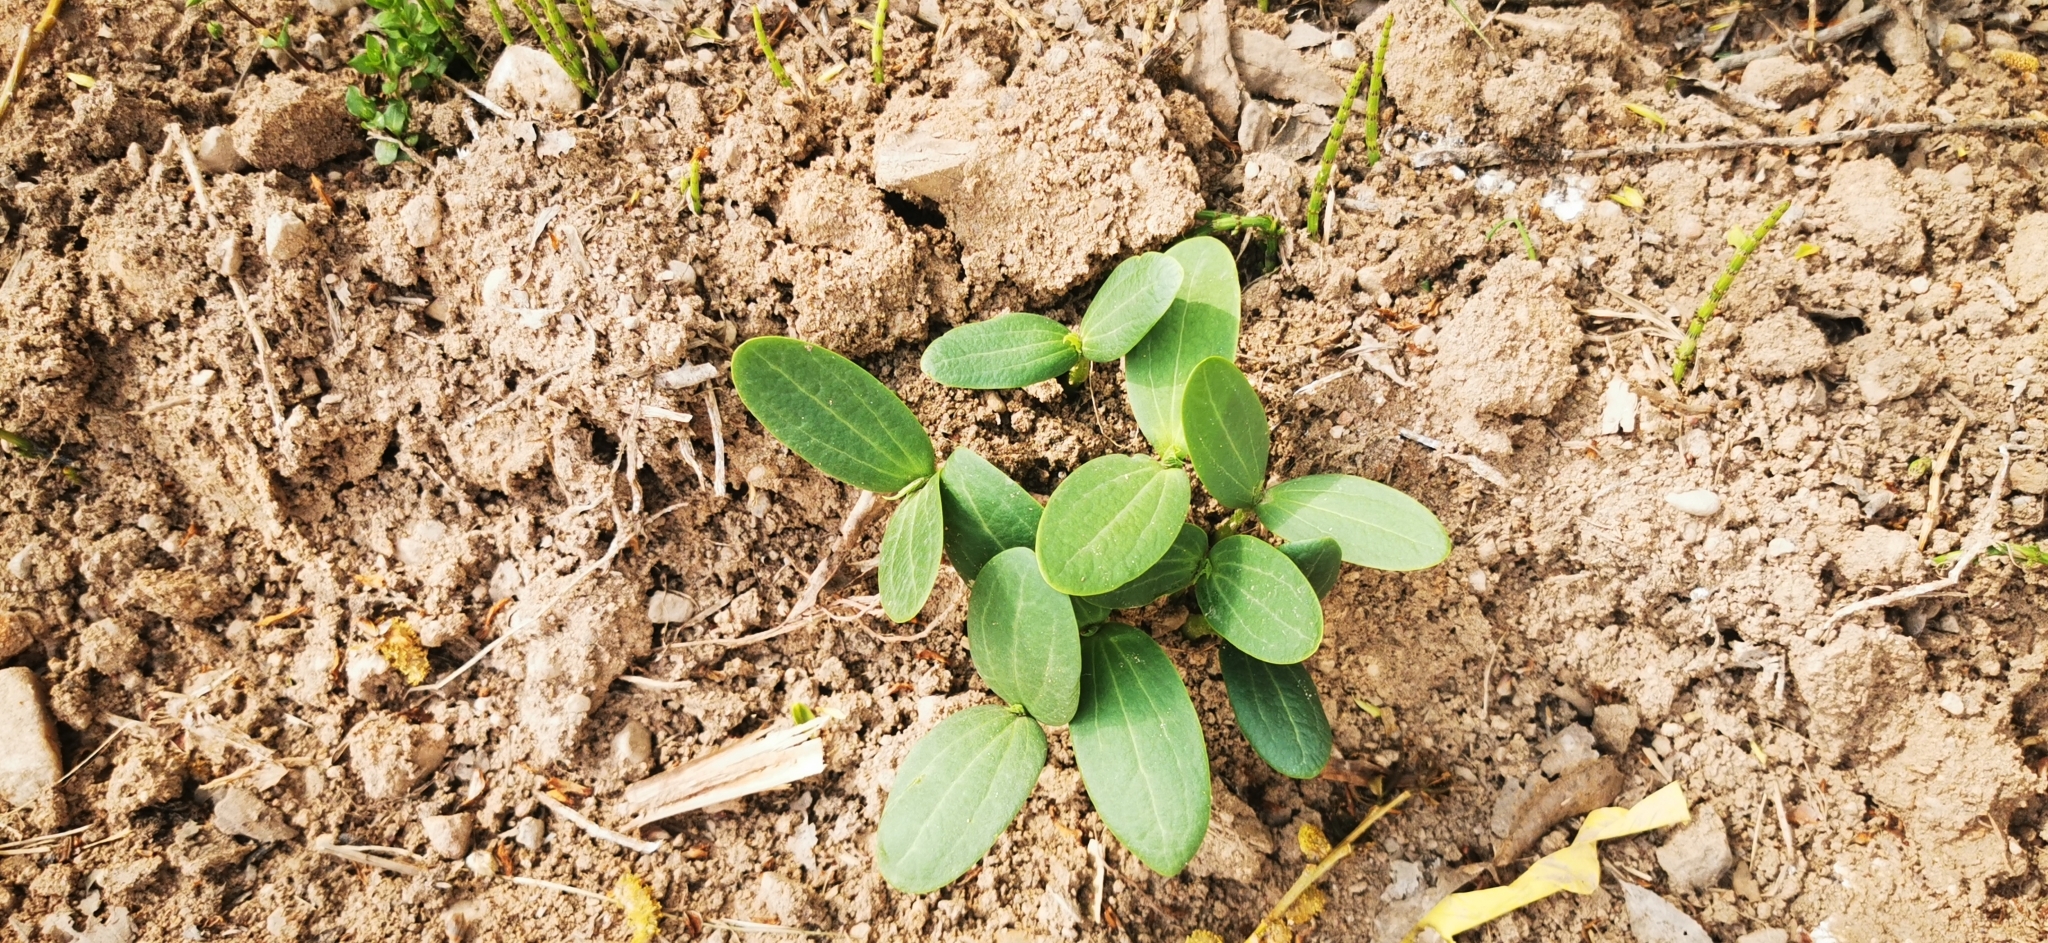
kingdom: Plantae
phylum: Tracheophyta
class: Magnoliopsida
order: Cucurbitales
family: Cucurbitaceae
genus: Echinocystis
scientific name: Echinocystis lobata
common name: Wild cucumber
